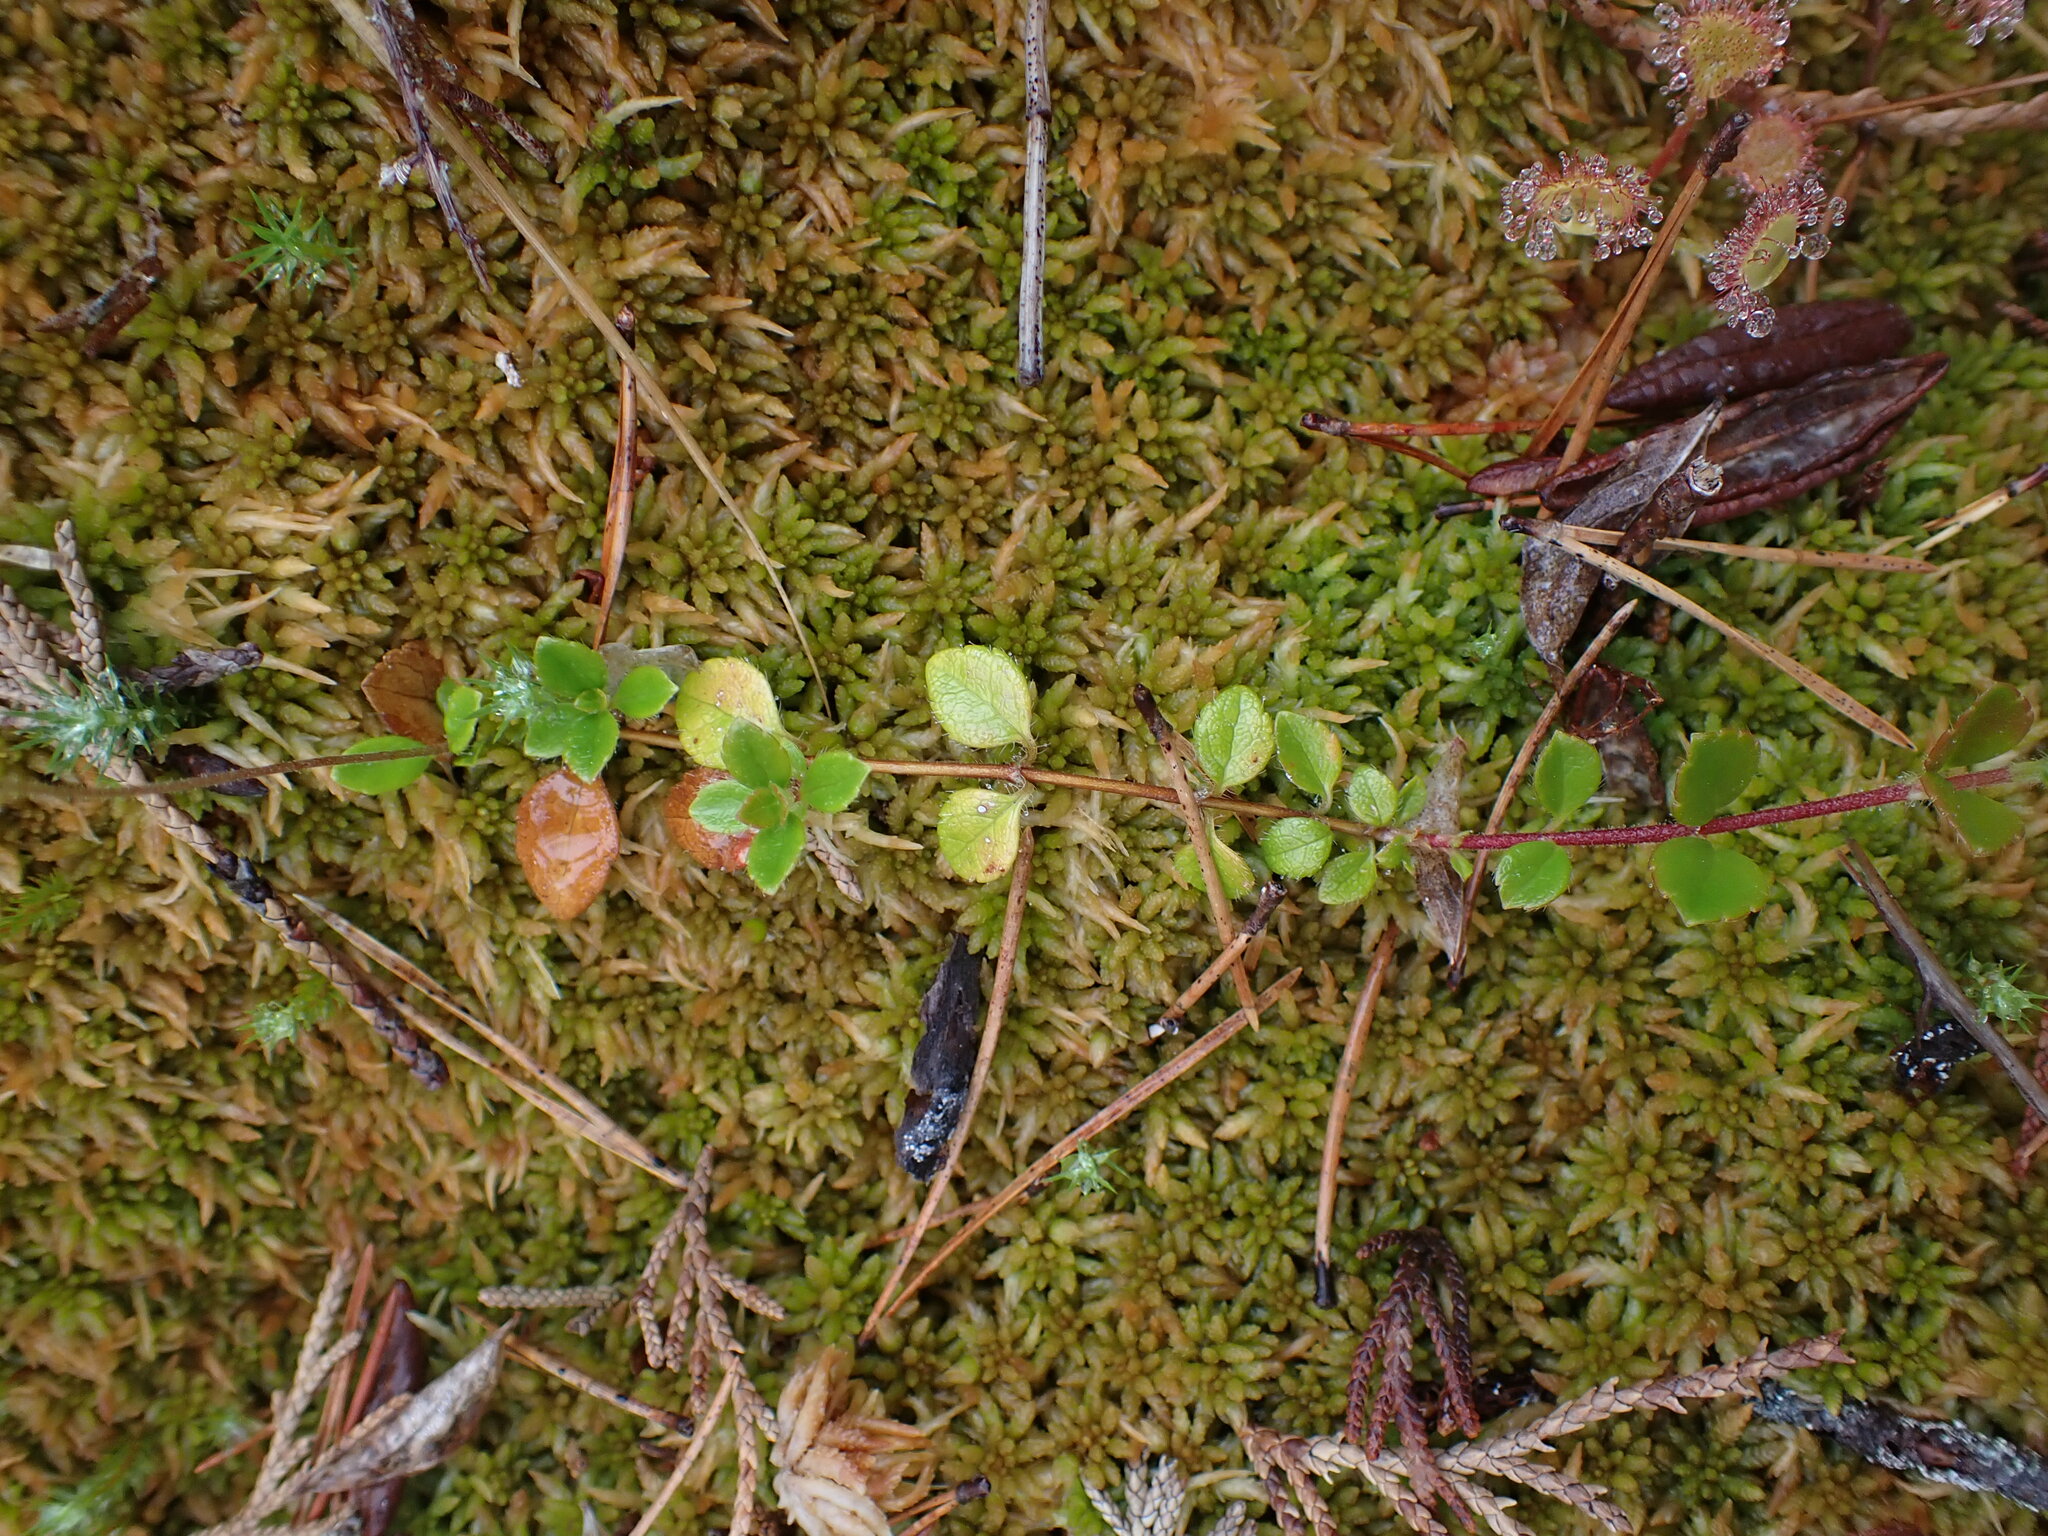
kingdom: Plantae
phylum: Tracheophyta
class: Magnoliopsida
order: Dipsacales
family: Caprifoliaceae
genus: Linnaea
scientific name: Linnaea borealis
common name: Twinflower
